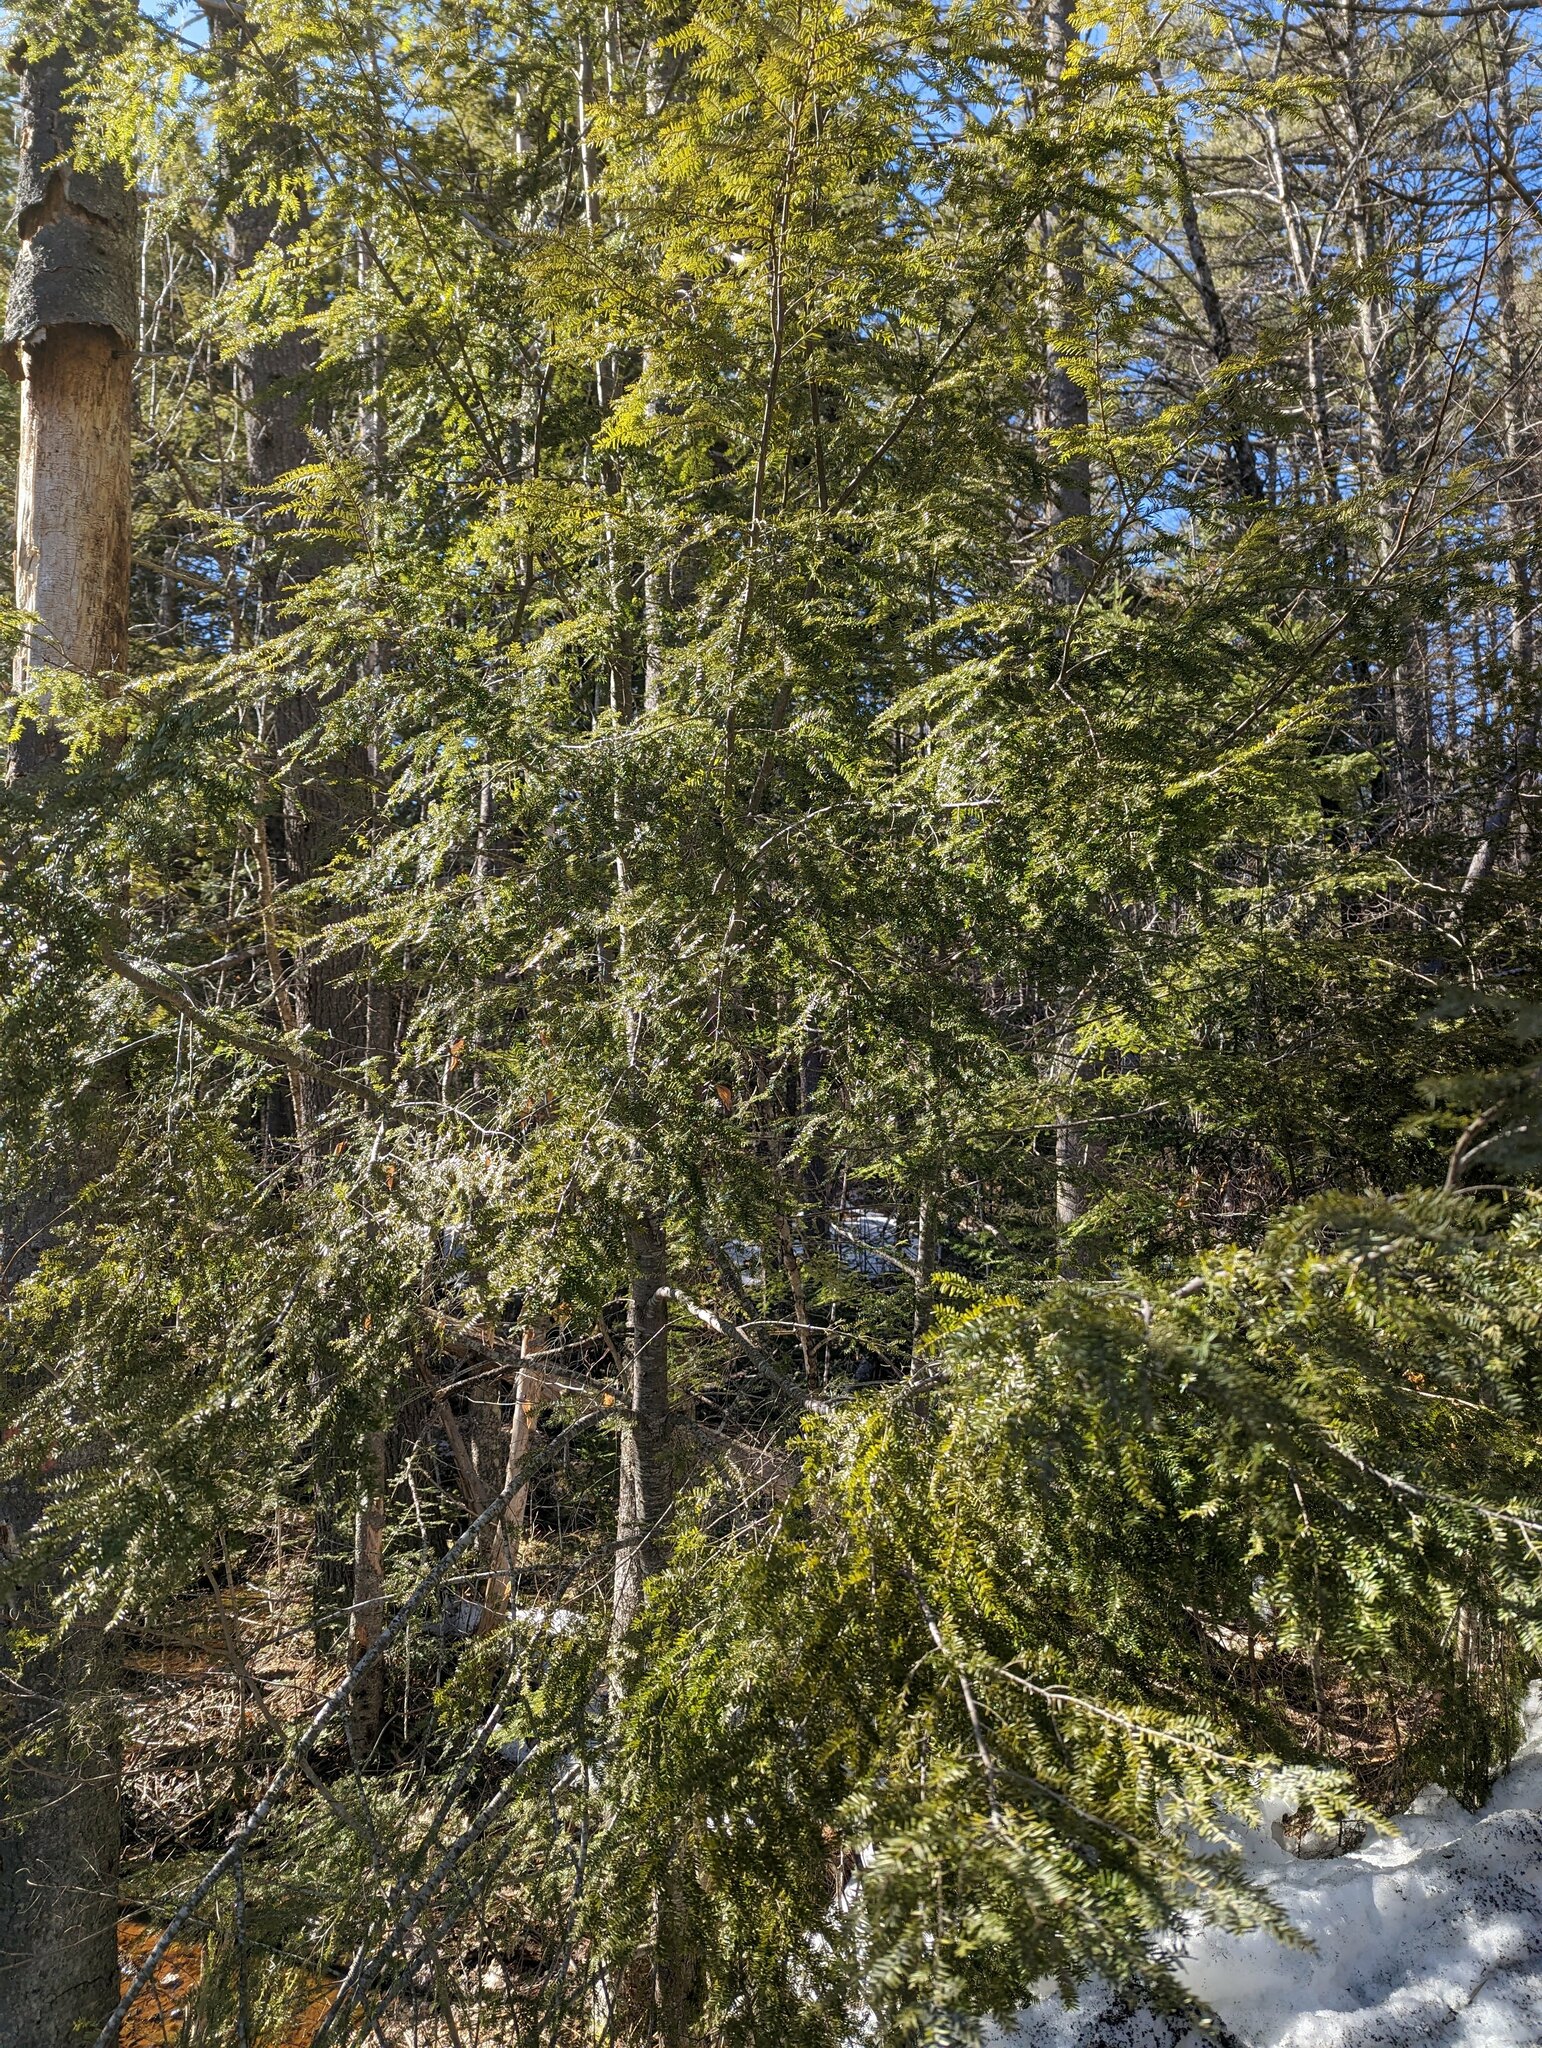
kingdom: Plantae
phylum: Tracheophyta
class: Pinopsida
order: Pinales
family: Pinaceae
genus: Tsuga
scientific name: Tsuga canadensis
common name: Eastern hemlock
